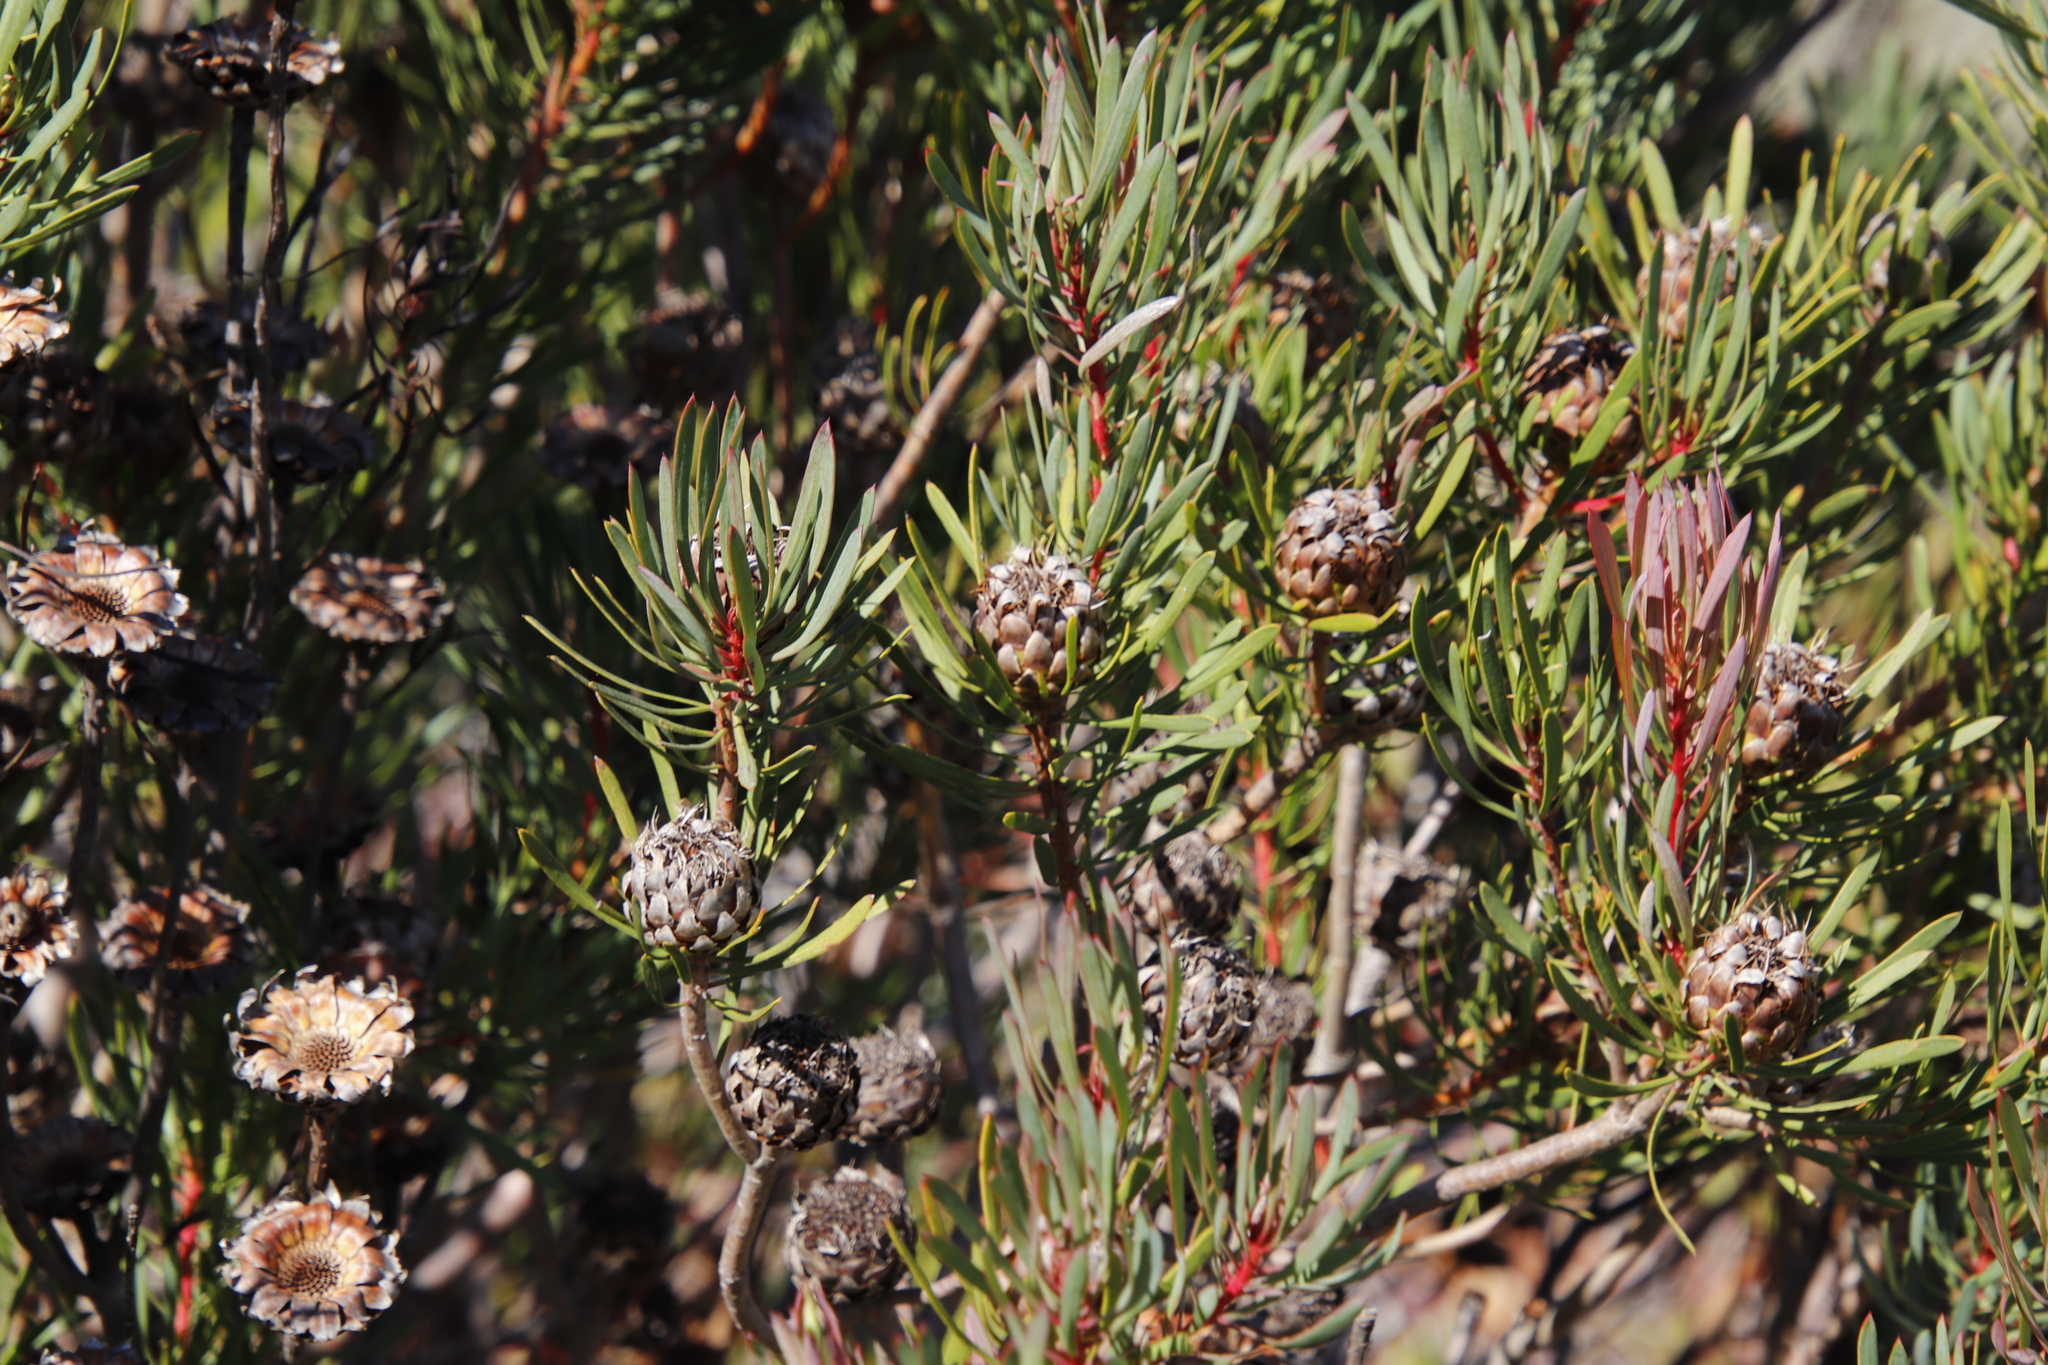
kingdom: Plantae
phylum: Tracheophyta
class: Magnoliopsida
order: Proteales
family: Proteaceae
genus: Protea
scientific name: Protea scolymocephala
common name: Thistle sugarbush
